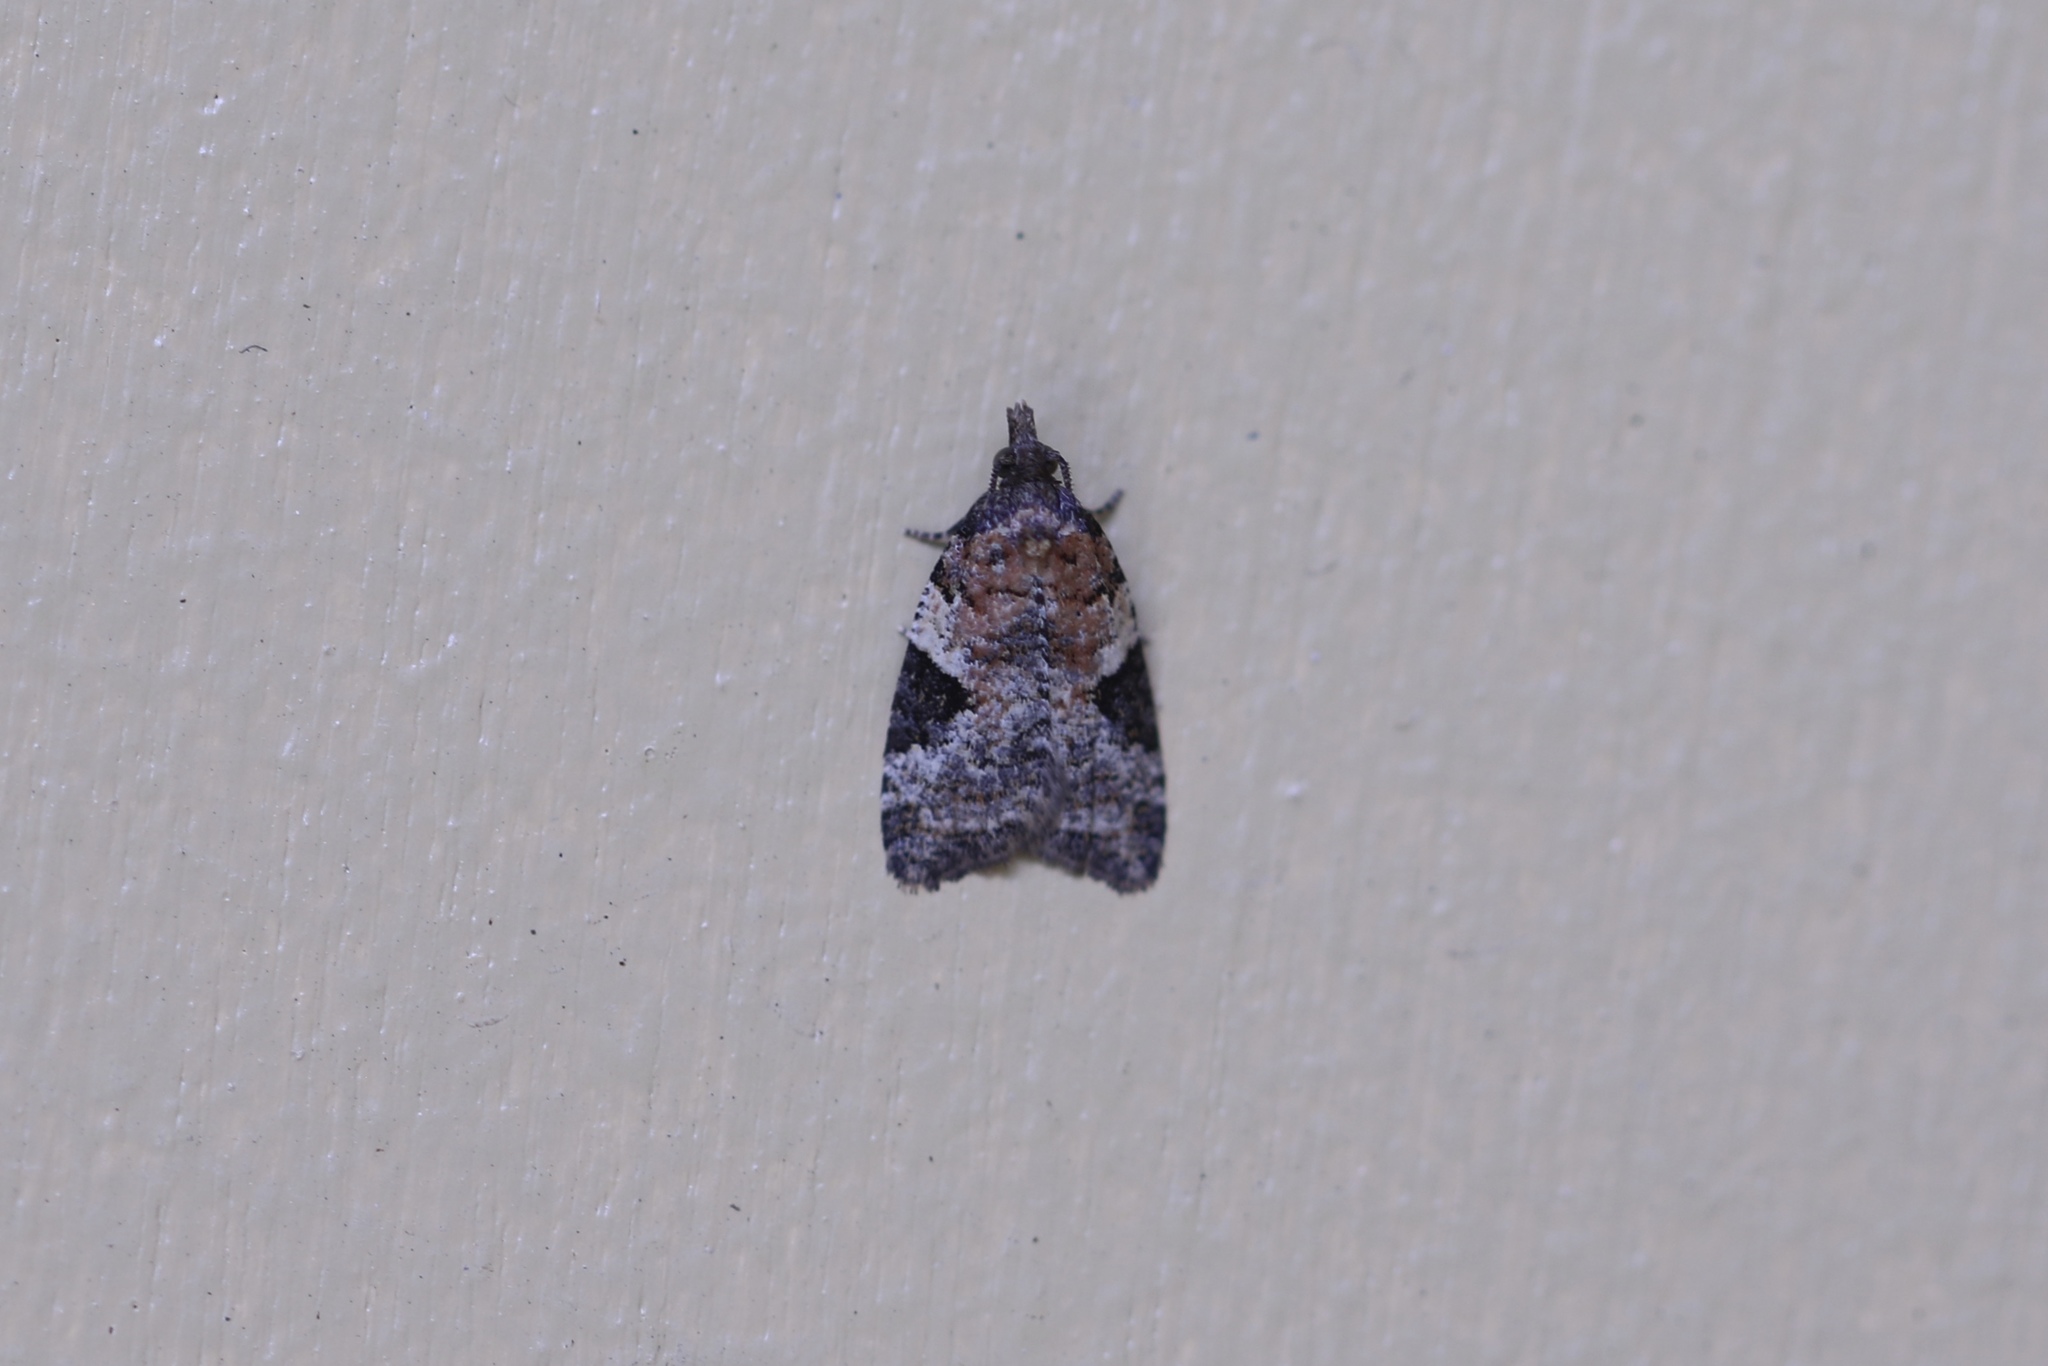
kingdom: Animalia
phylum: Arthropoda
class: Insecta
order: Lepidoptera
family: Tortricidae
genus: Anopina
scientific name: Anopina triangulana
